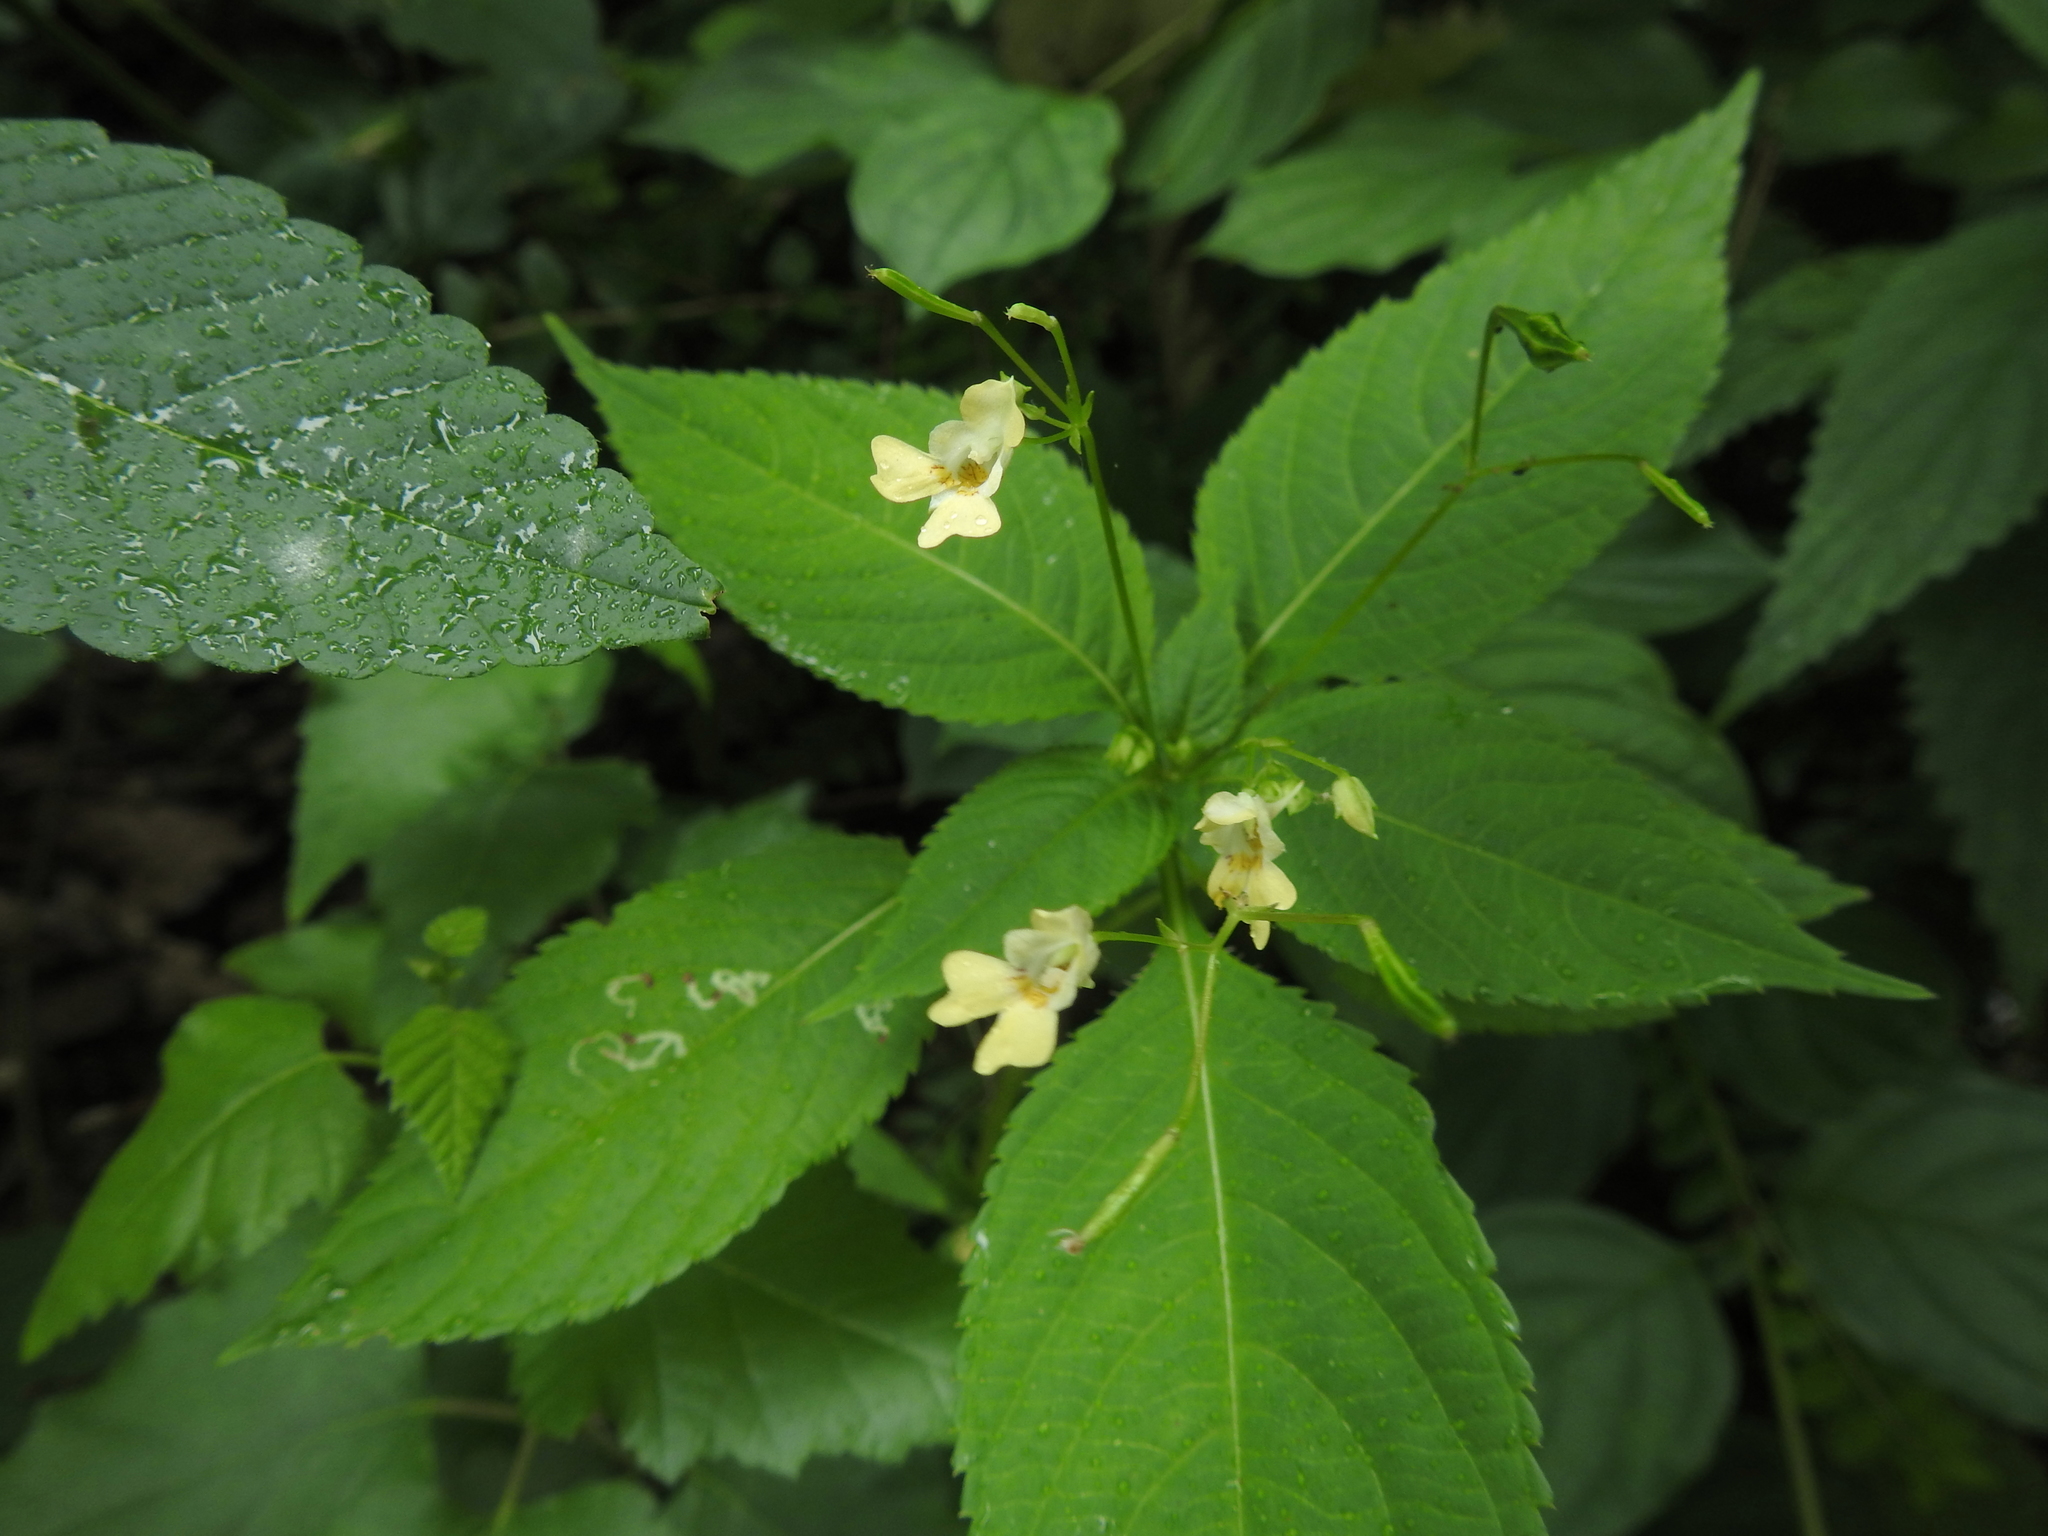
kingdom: Plantae
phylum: Tracheophyta
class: Magnoliopsida
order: Ericales
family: Balsaminaceae
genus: Impatiens
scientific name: Impatiens parviflora
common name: Small balsam
